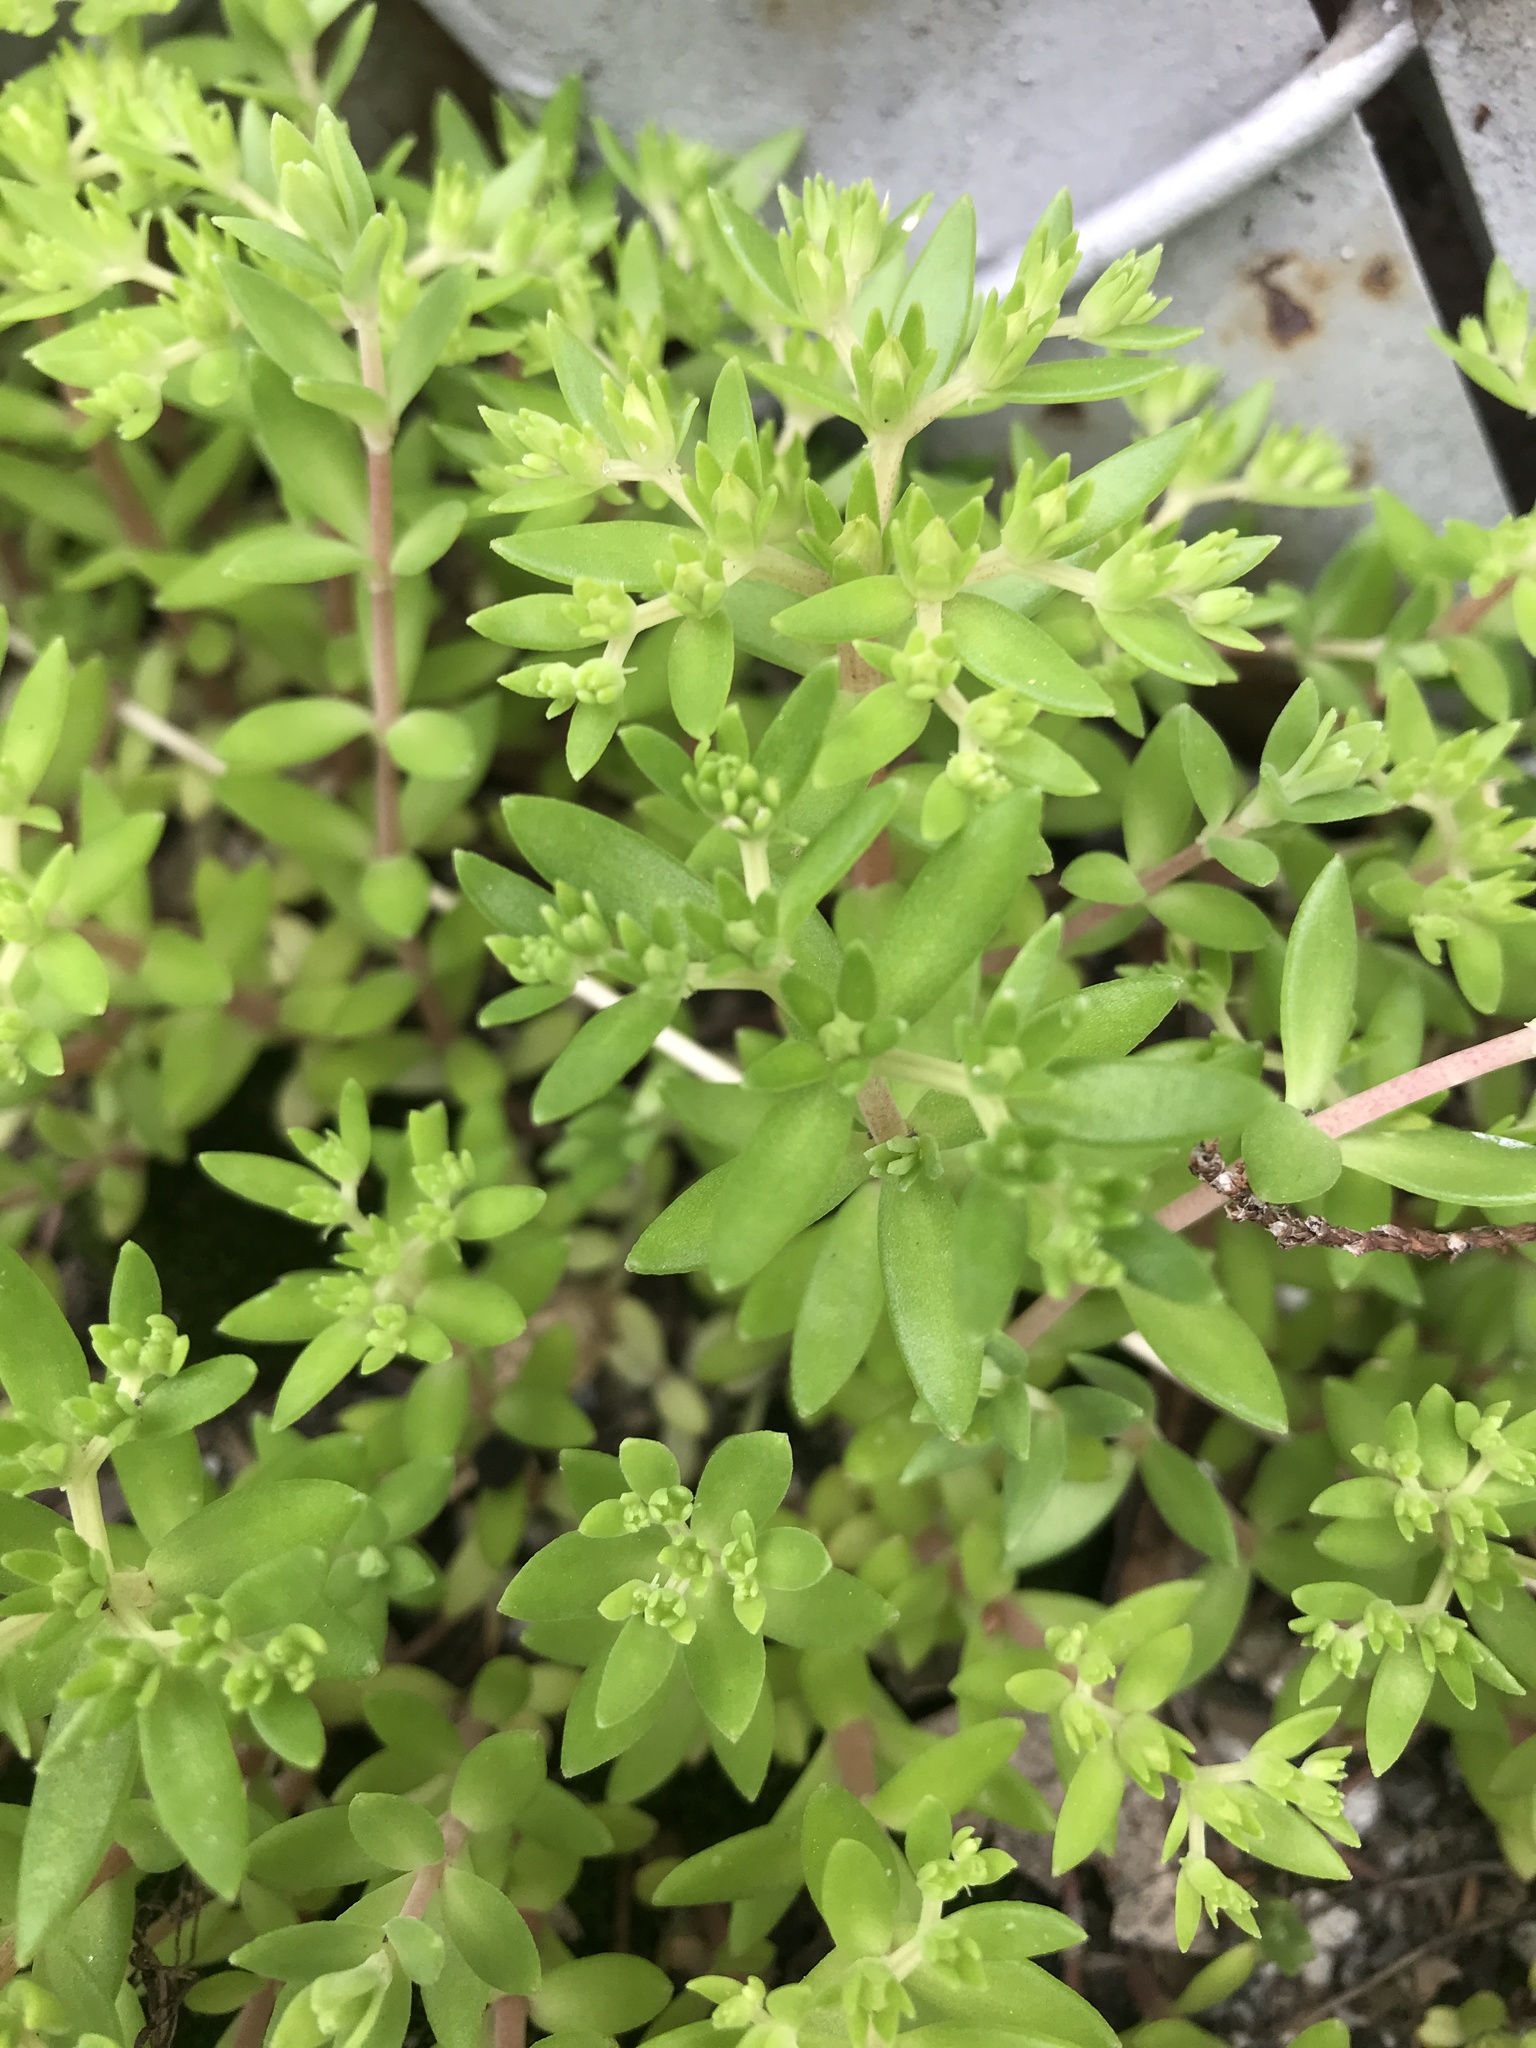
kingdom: Plantae
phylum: Tracheophyta
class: Magnoliopsida
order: Saxifragales
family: Crassulaceae
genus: Sedum
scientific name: Sedum sarmentosum
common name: Stringy stonecrop
